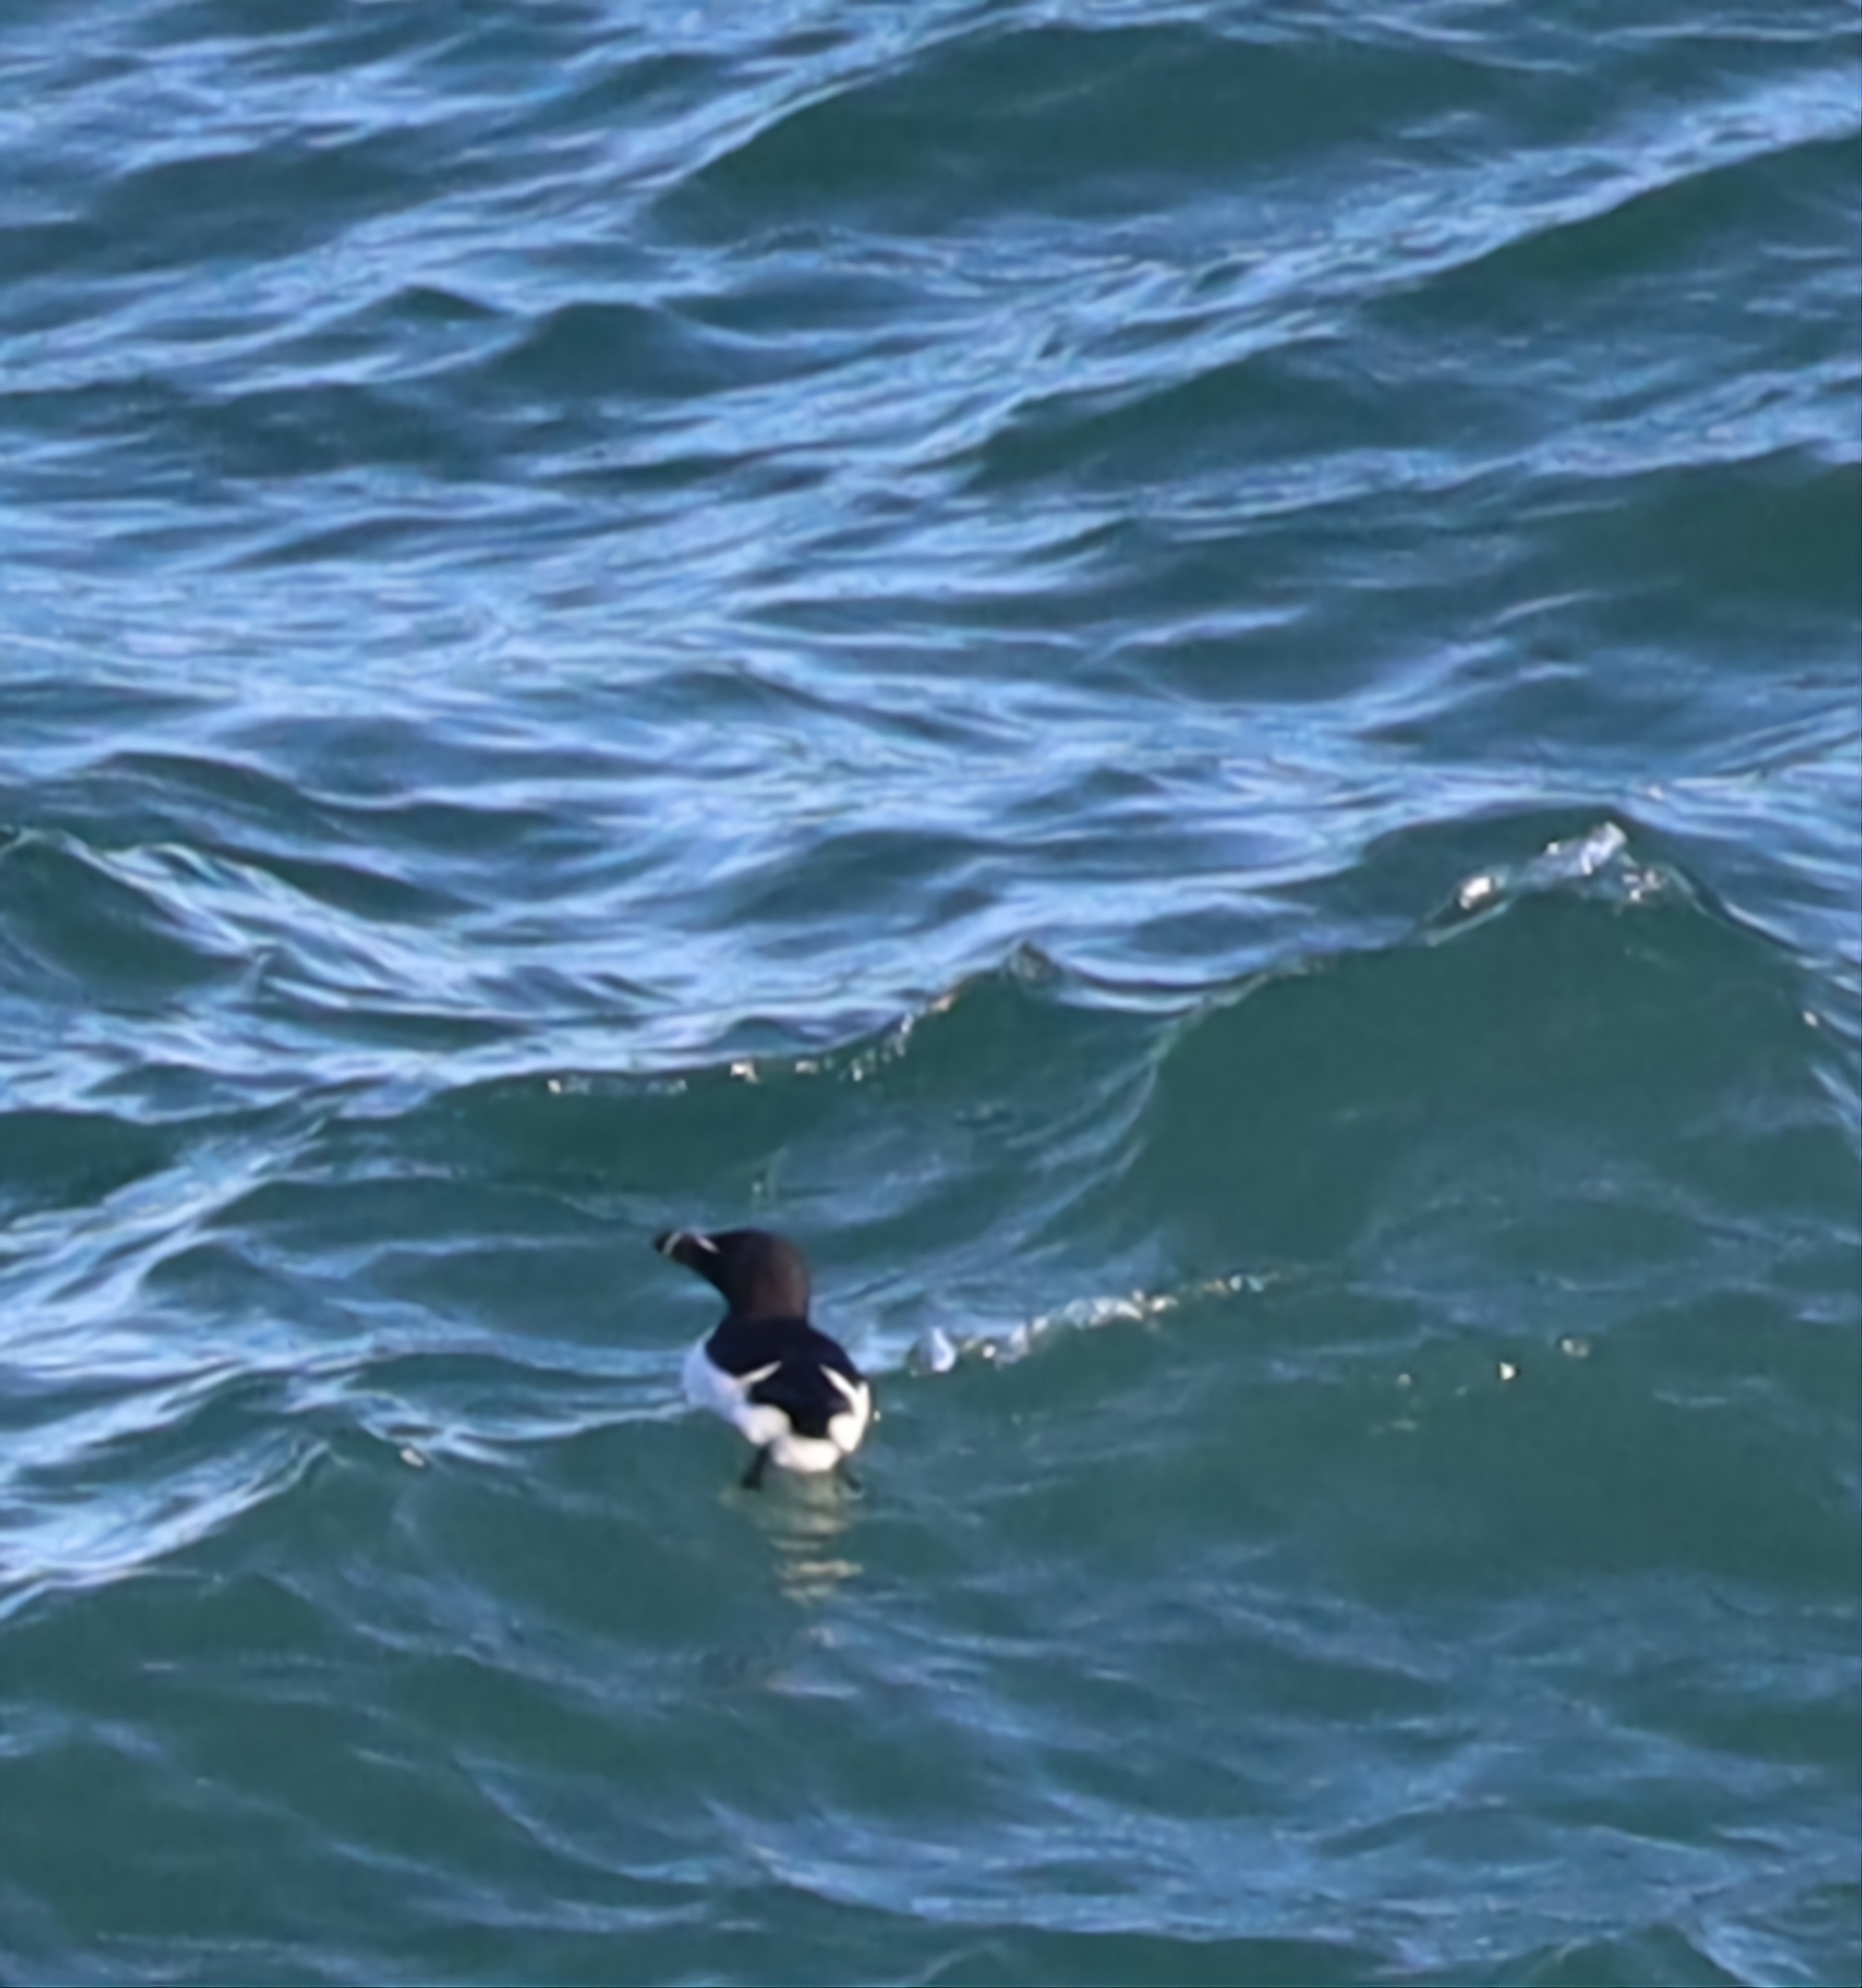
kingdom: Animalia
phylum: Chordata
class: Aves
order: Charadriiformes
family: Alcidae
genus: Alca
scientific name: Alca torda
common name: Razorbill
